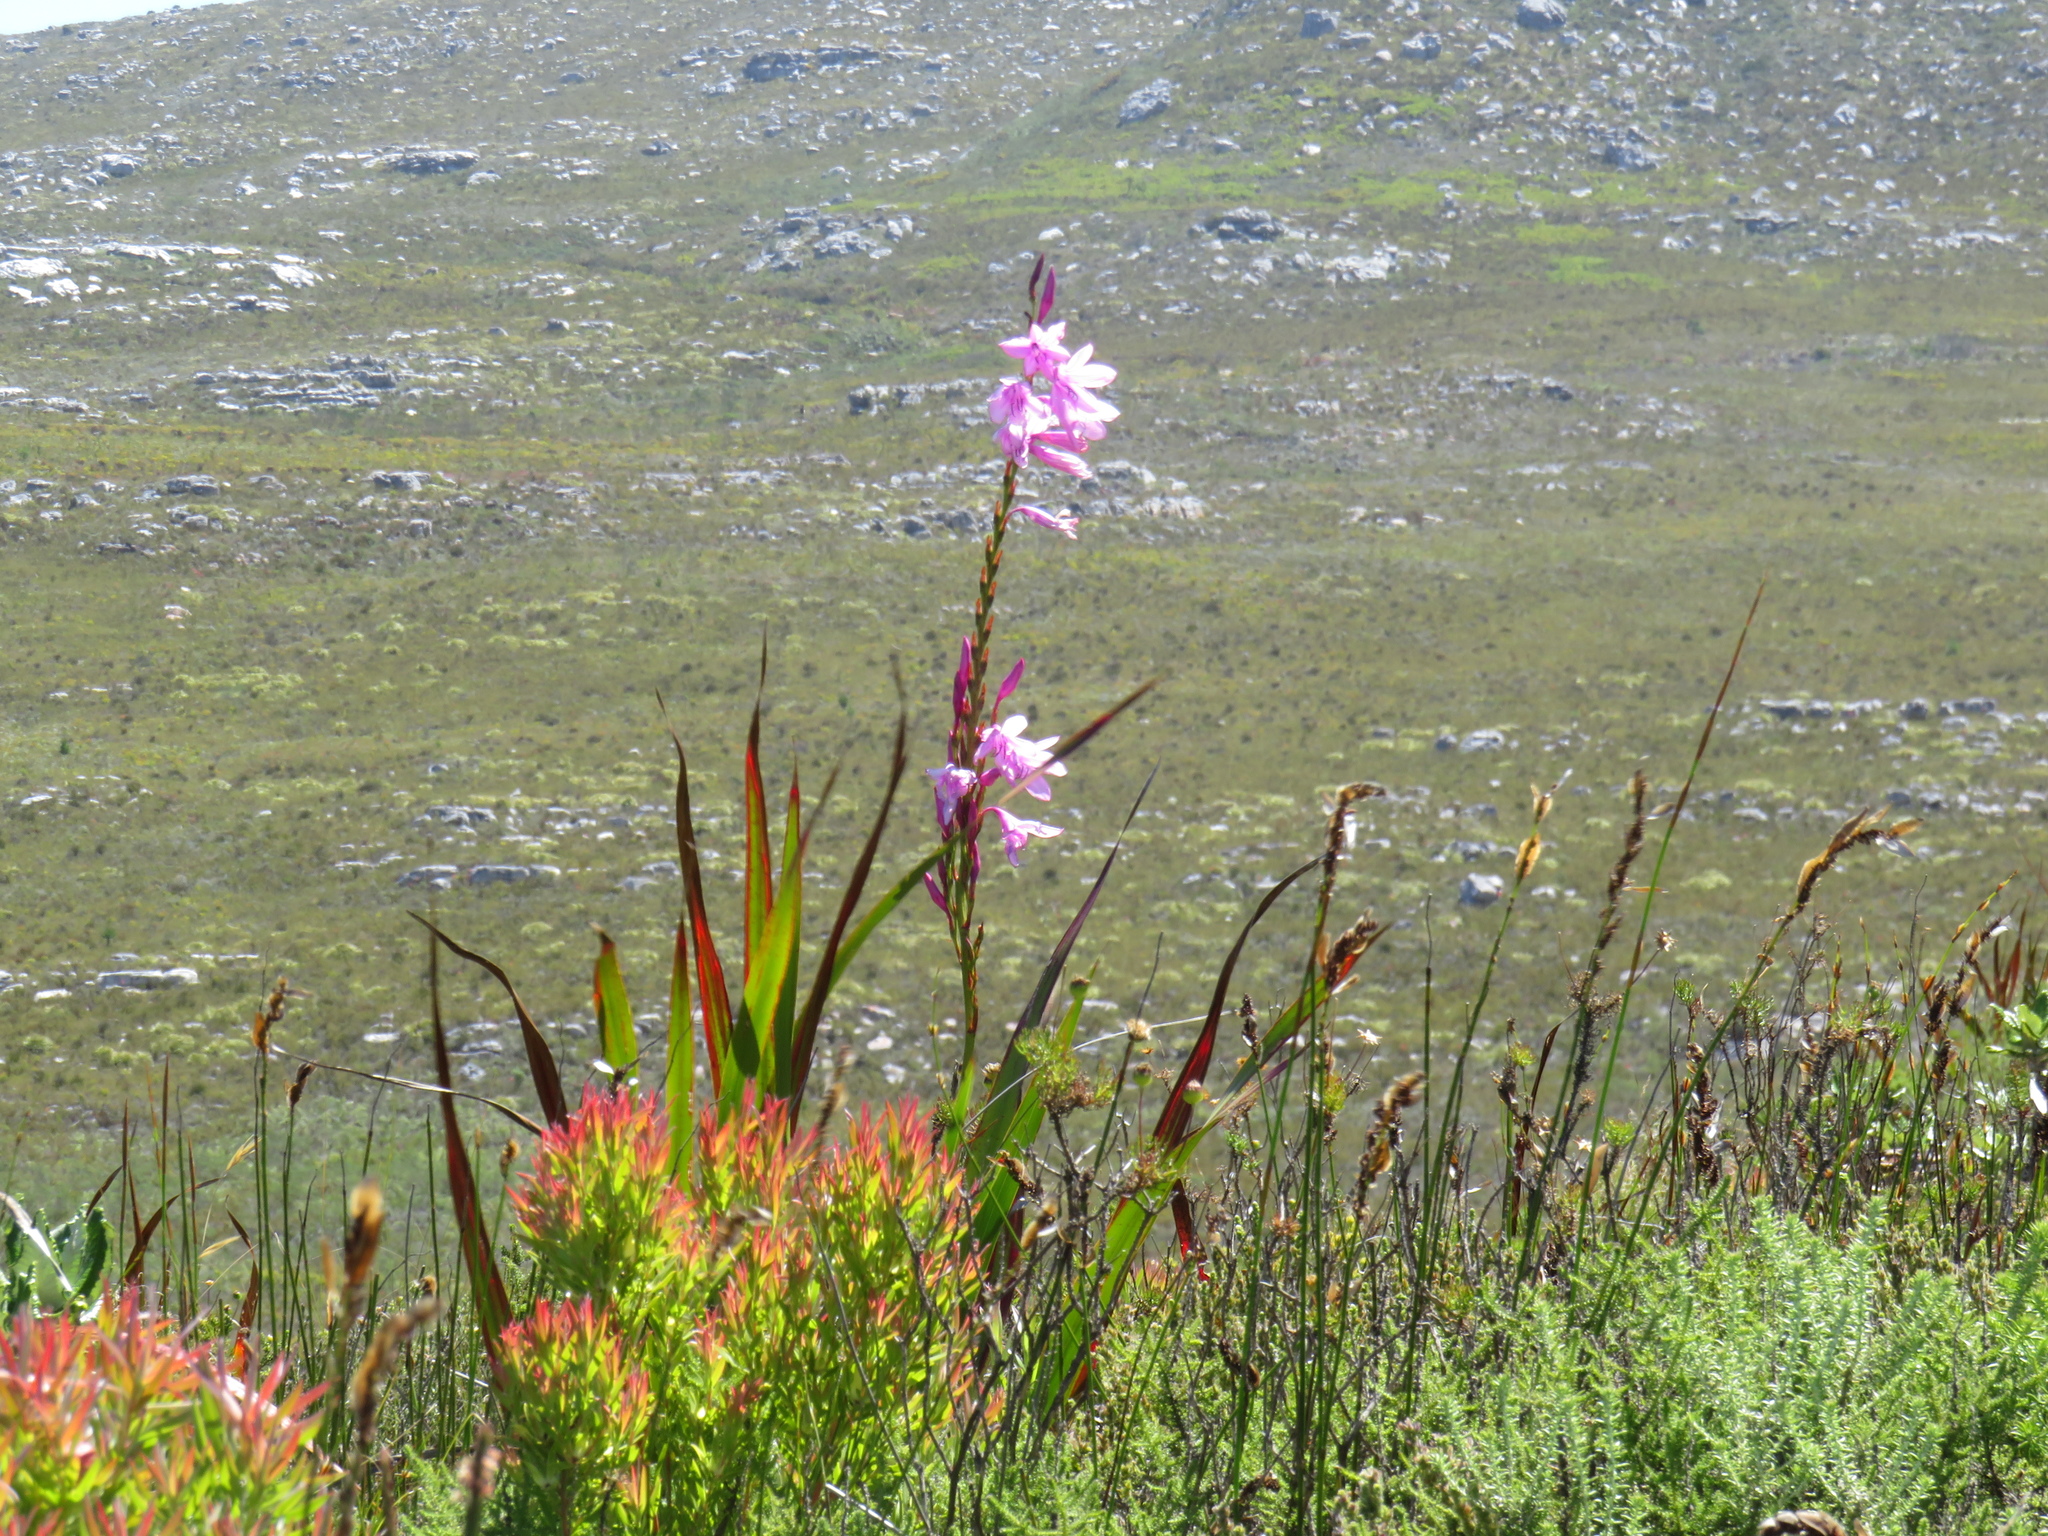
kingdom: Plantae
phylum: Tracheophyta
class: Liliopsida
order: Asparagales
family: Iridaceae
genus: Watsonia
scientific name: Watsonia borbonica
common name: Bugle-lily
